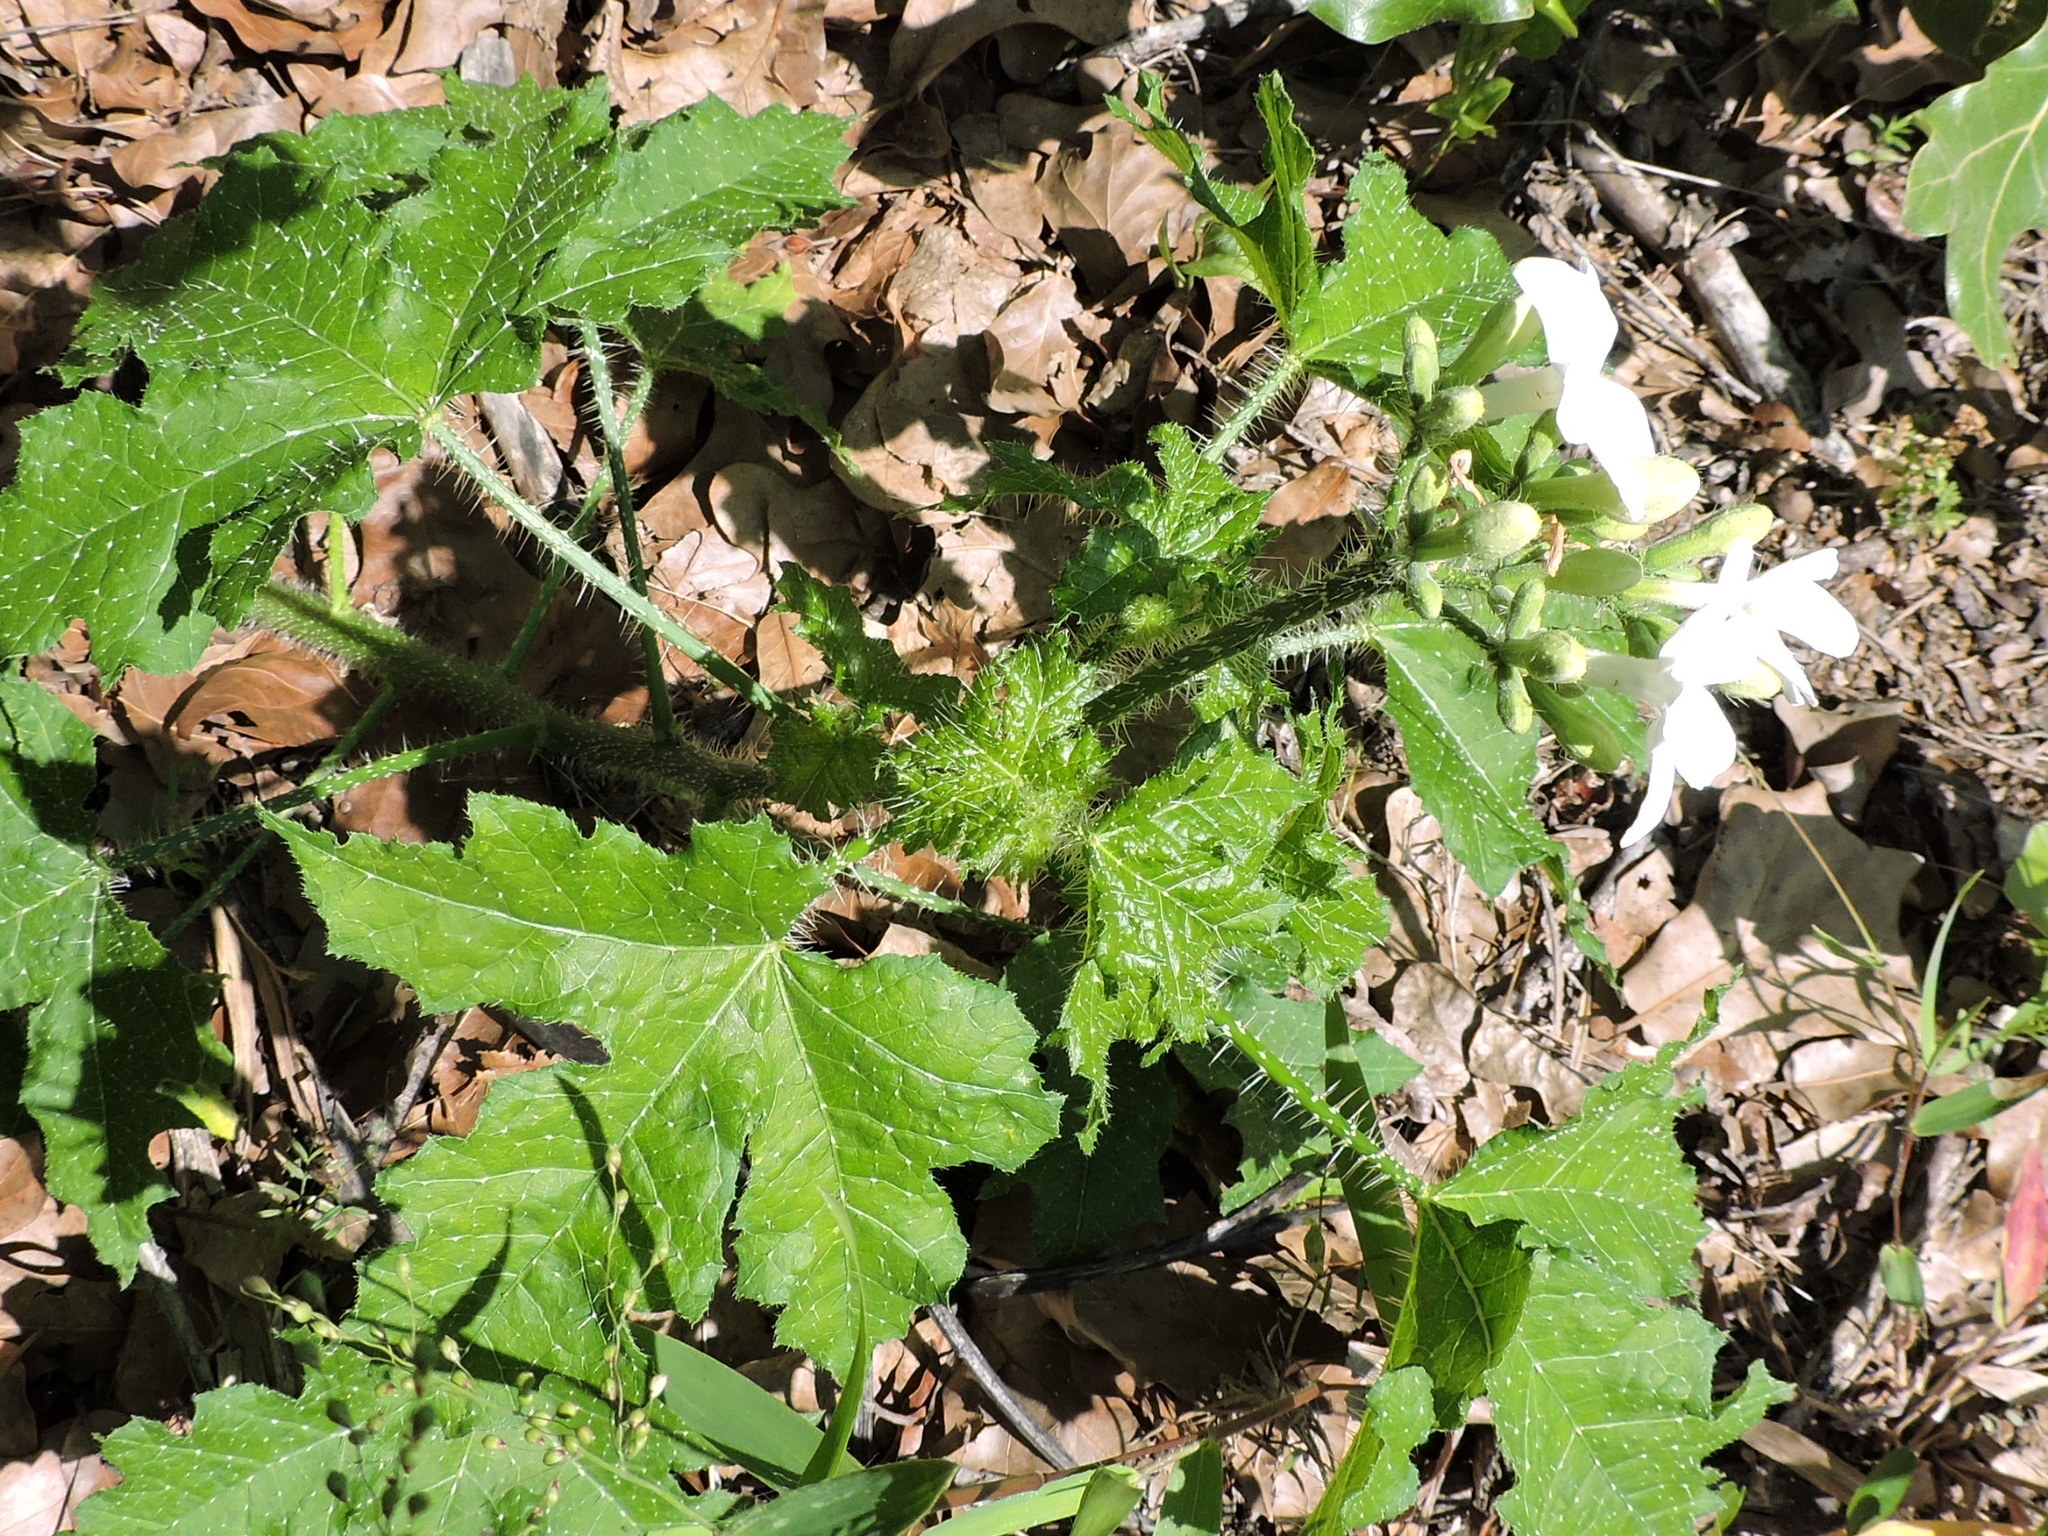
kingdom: Plantae
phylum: Tracheophyta
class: Magnoliopsida
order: Malpighiales
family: Euphorbiaceae
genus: Cnidoscolus
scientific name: Cnidoscolus texanus
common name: Texas bull-nettle
